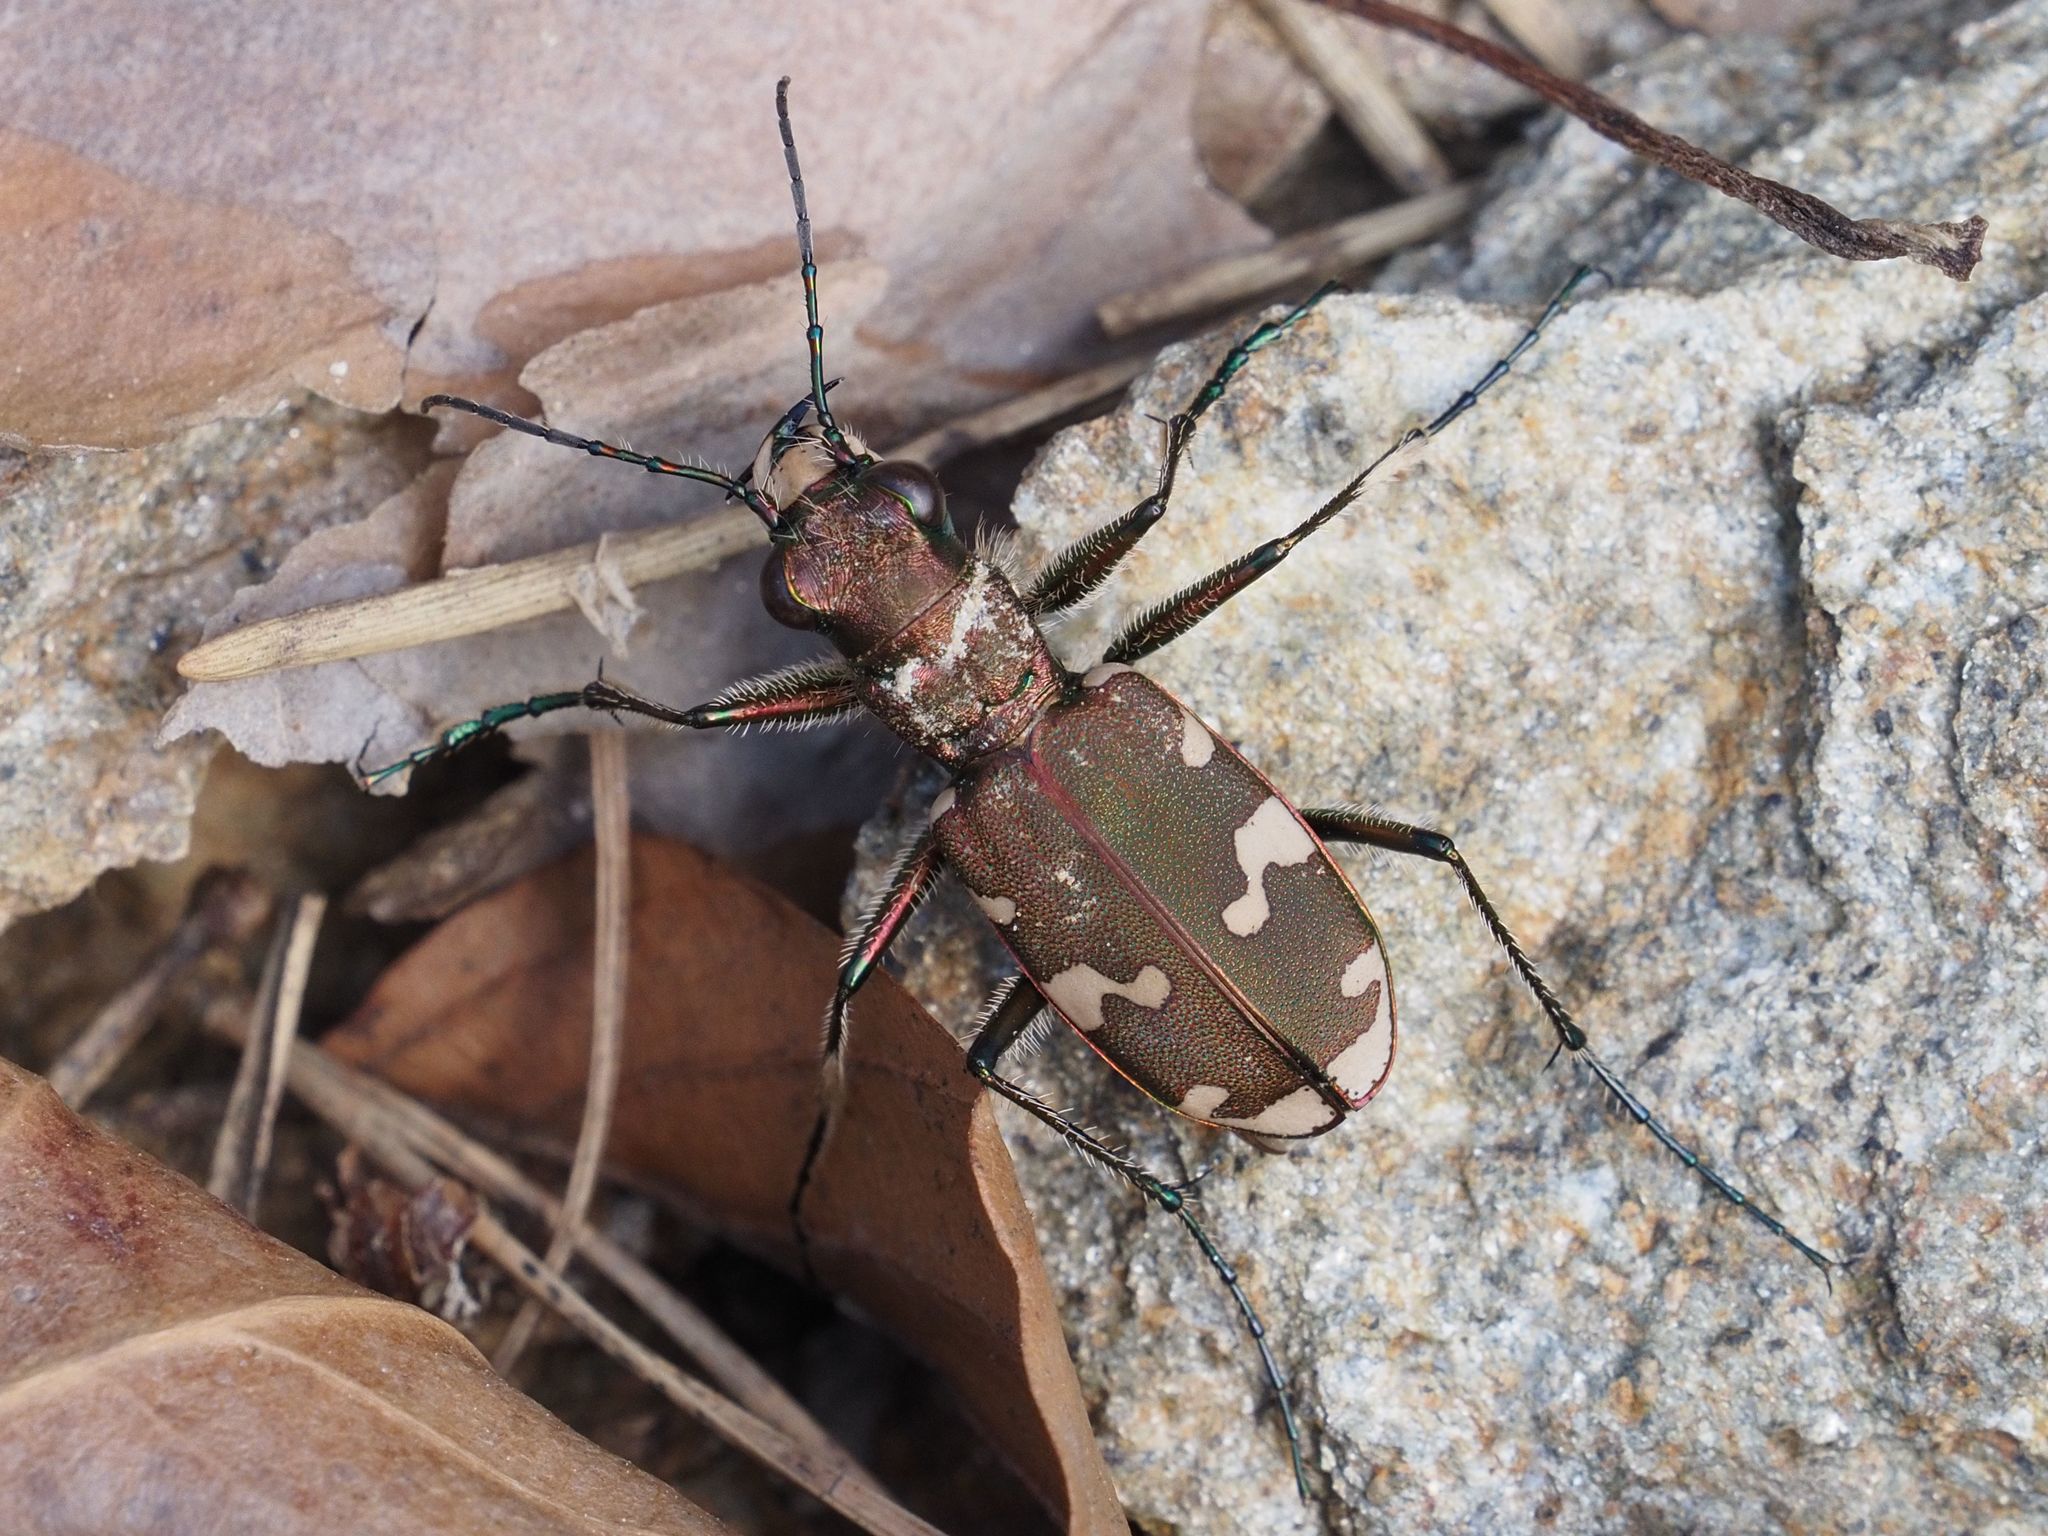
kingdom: Animalia
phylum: Arthropoda
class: Insecta
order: Coleoptera
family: Carabidae
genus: Cicindela
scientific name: Cicindela sylvicola
